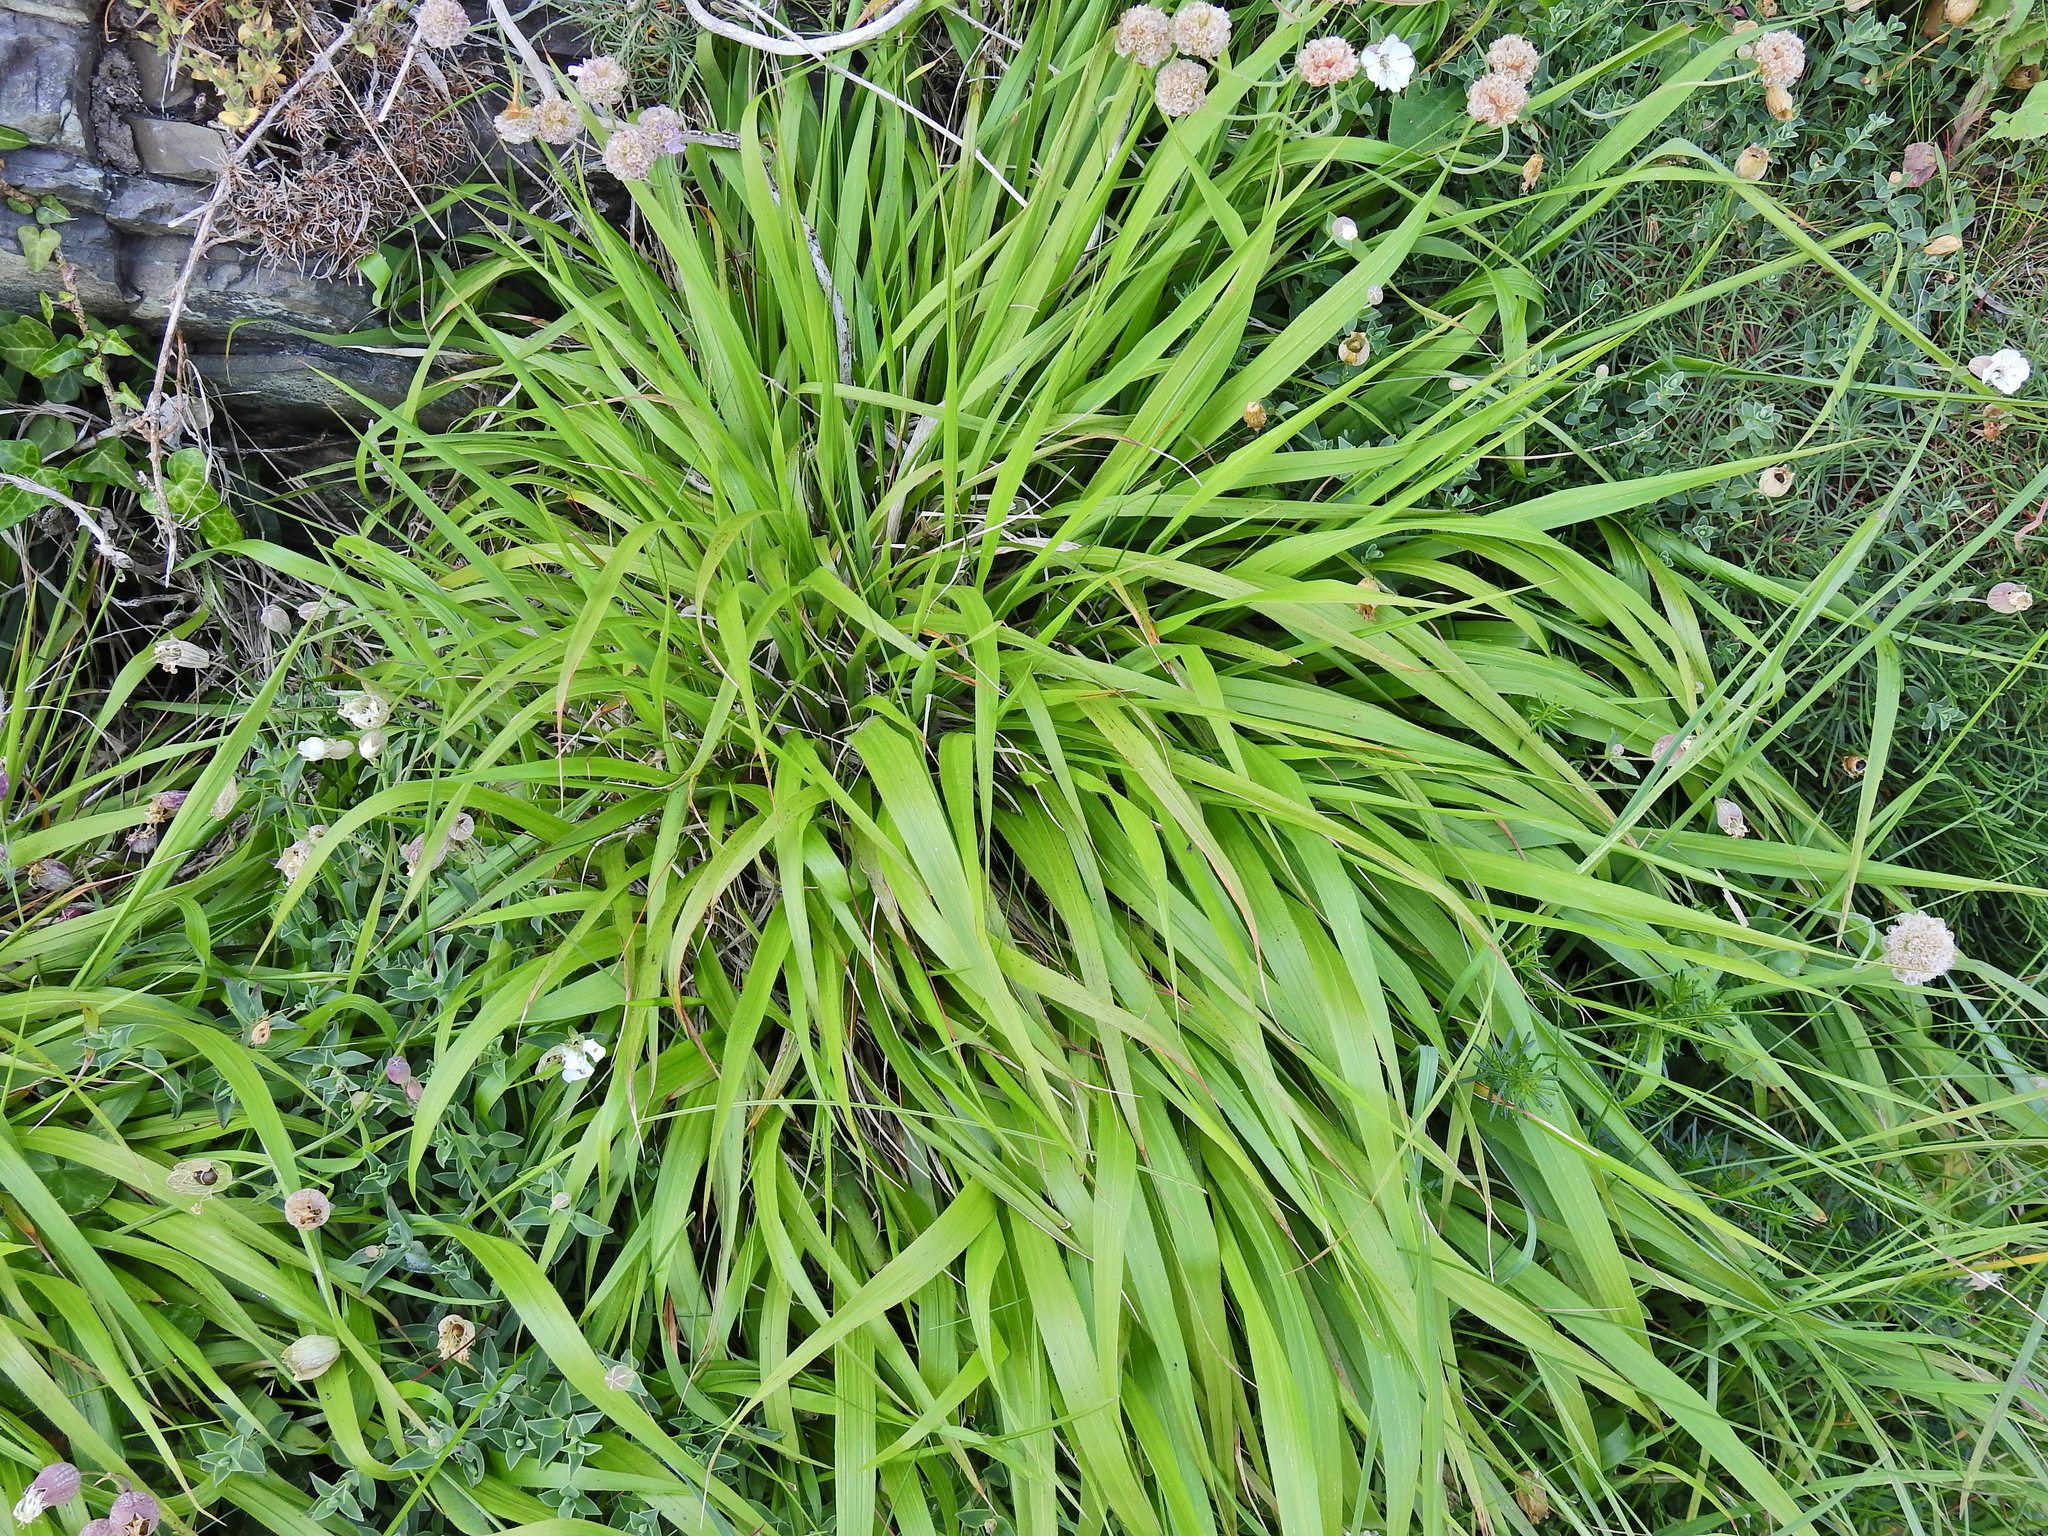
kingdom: Plantae
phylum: Tracheophyta
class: Liliopsida
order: Poales
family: Poaceae
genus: Brachypodium
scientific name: Brachypodium sylvaticum
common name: False-brome
